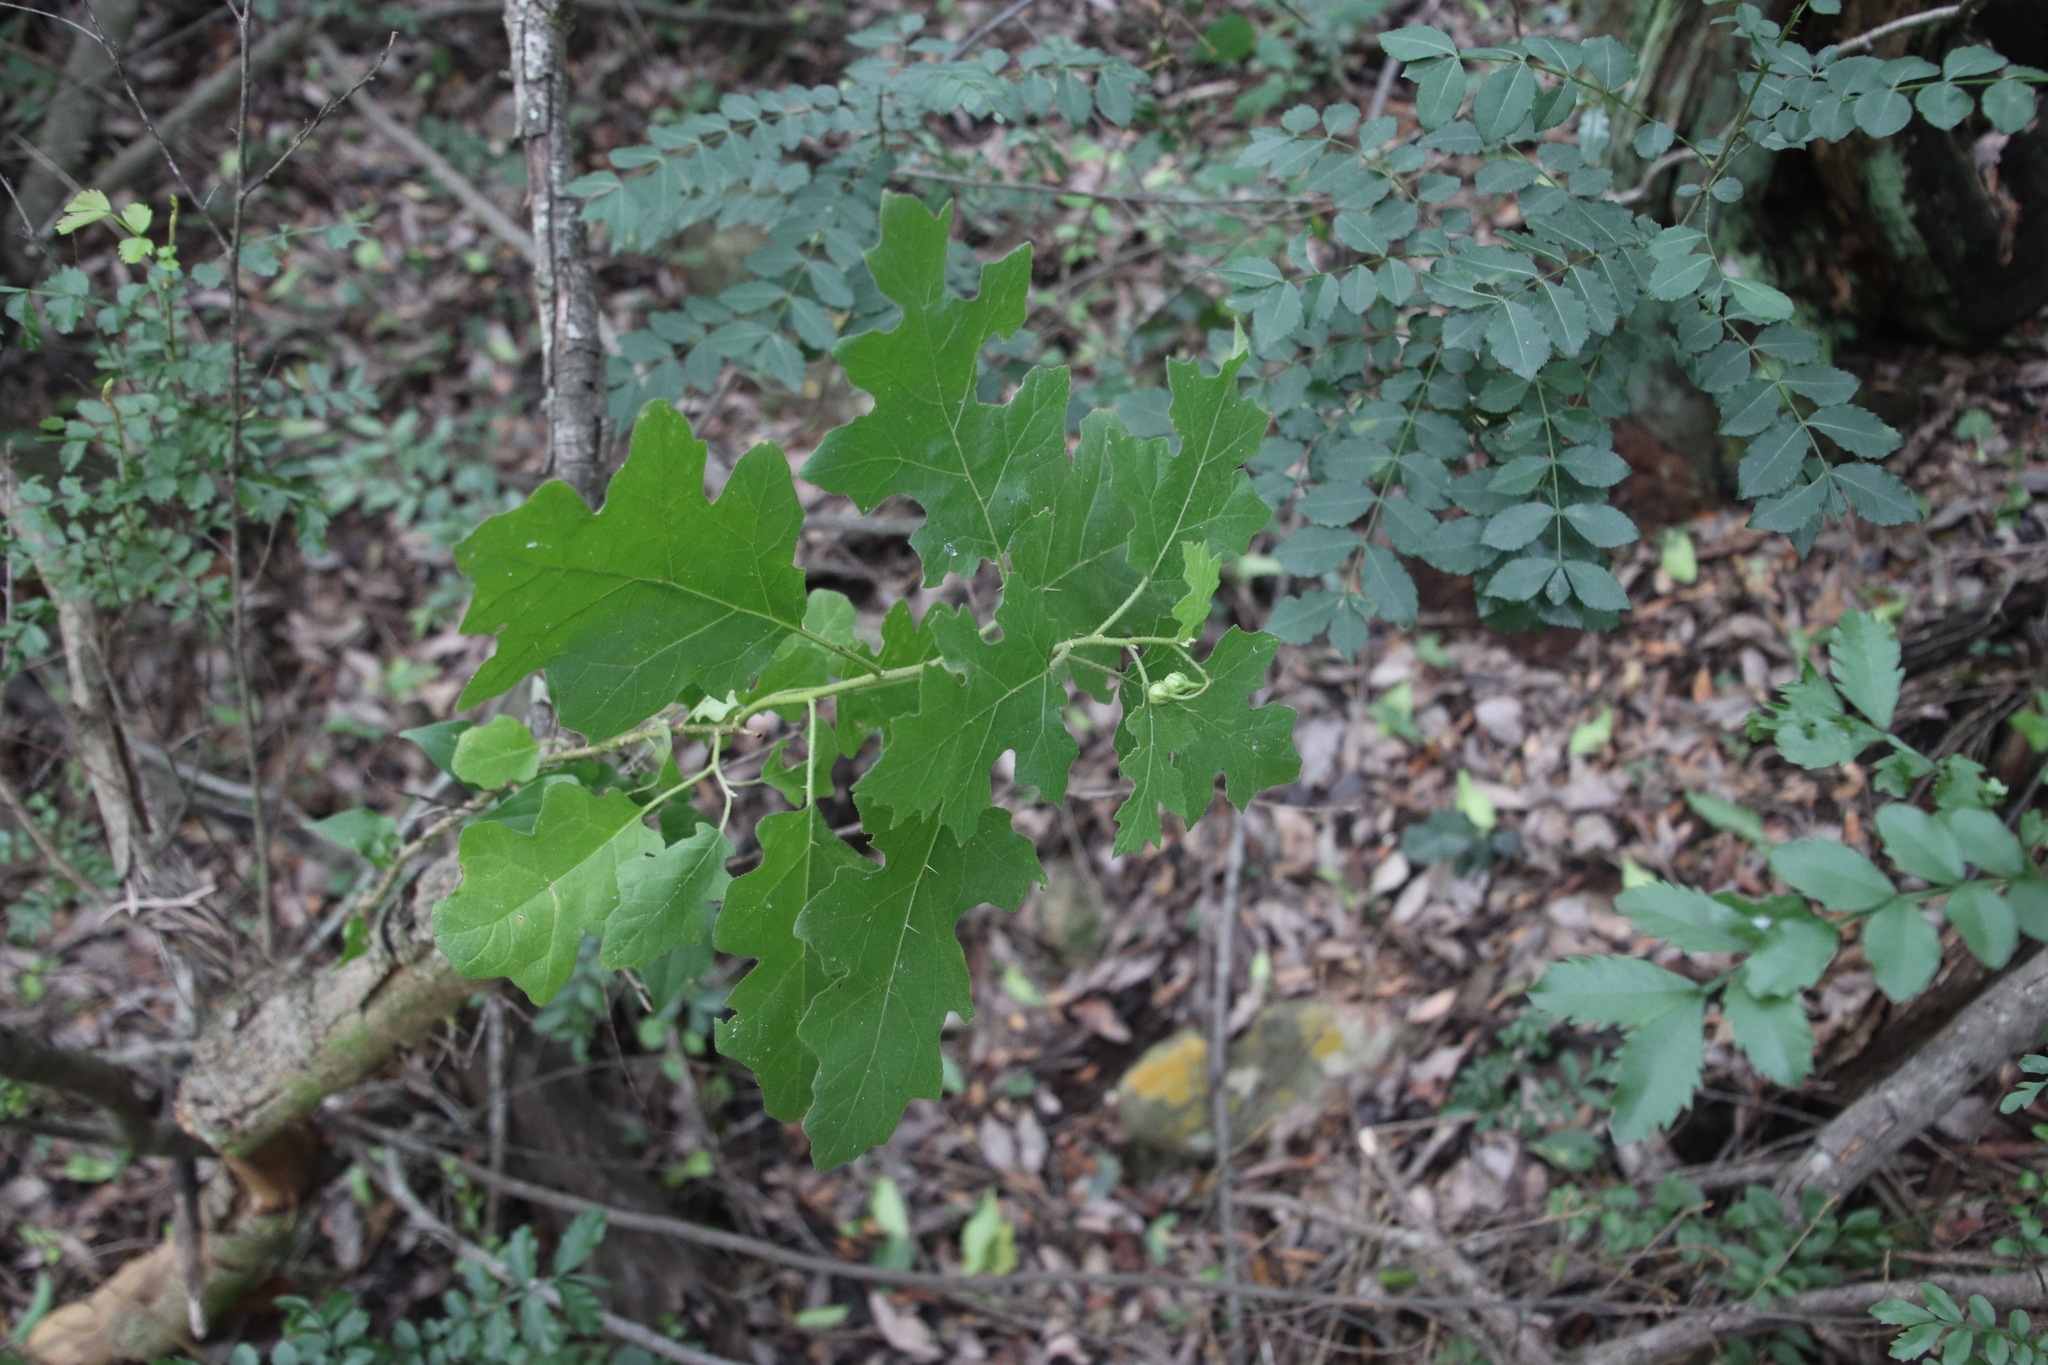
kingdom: Plantae
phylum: Tracheophyta
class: Magnoliopsida
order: Solanales
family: Solanaceae
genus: Solanum
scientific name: Solanum rubetorum
